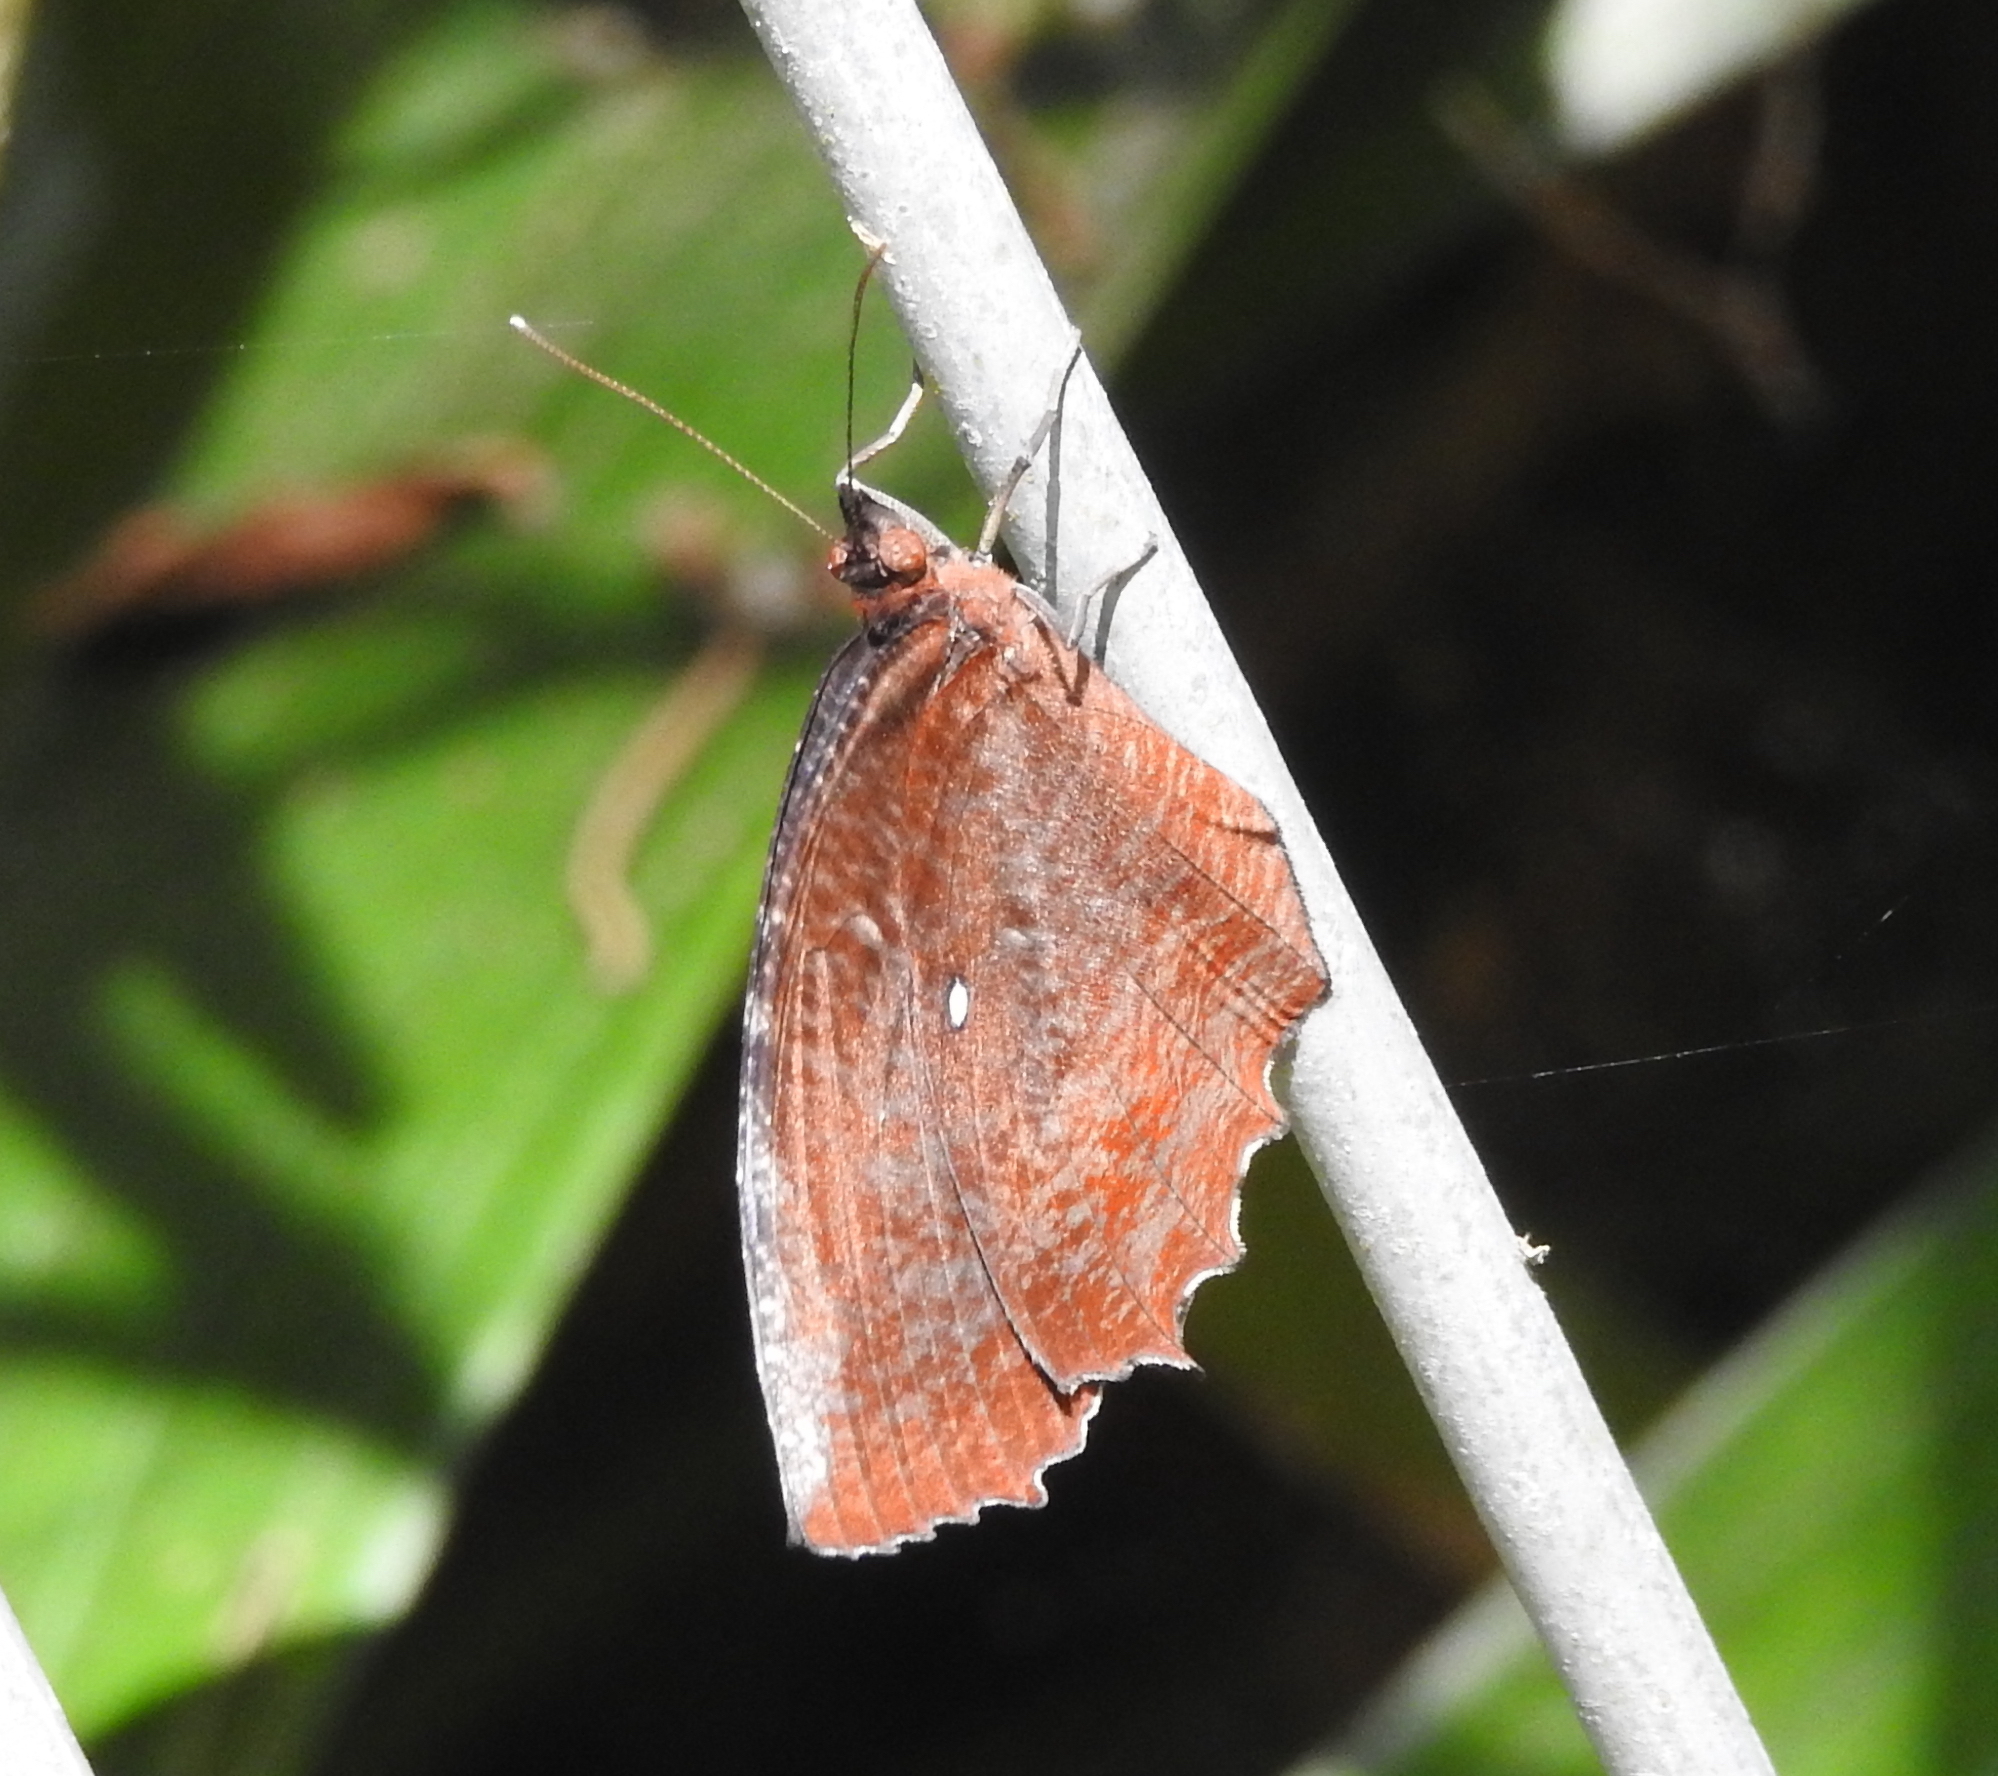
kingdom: Animalia
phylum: Arthropoda
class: Insecta
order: Lepidoptera
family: Nymphalidae
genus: Elymnias
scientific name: Elymnias hypermnestra
